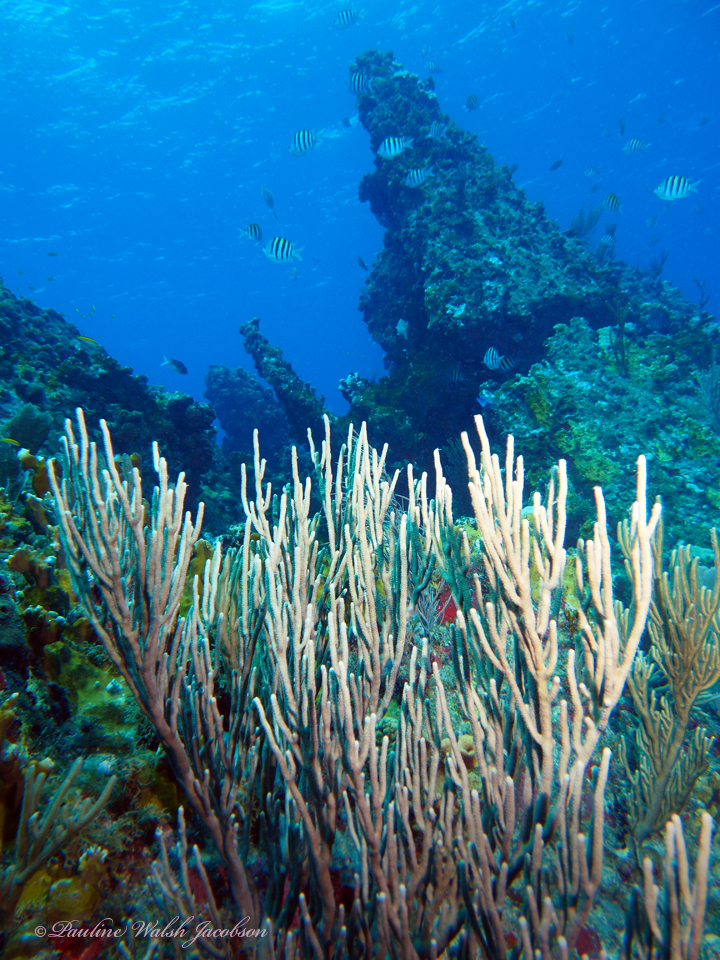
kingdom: Animalia
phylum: Chordata
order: Perciformes
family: Pomacentridae
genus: Abudefduf
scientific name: Abudefduf saxatilis
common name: Sergeant major
